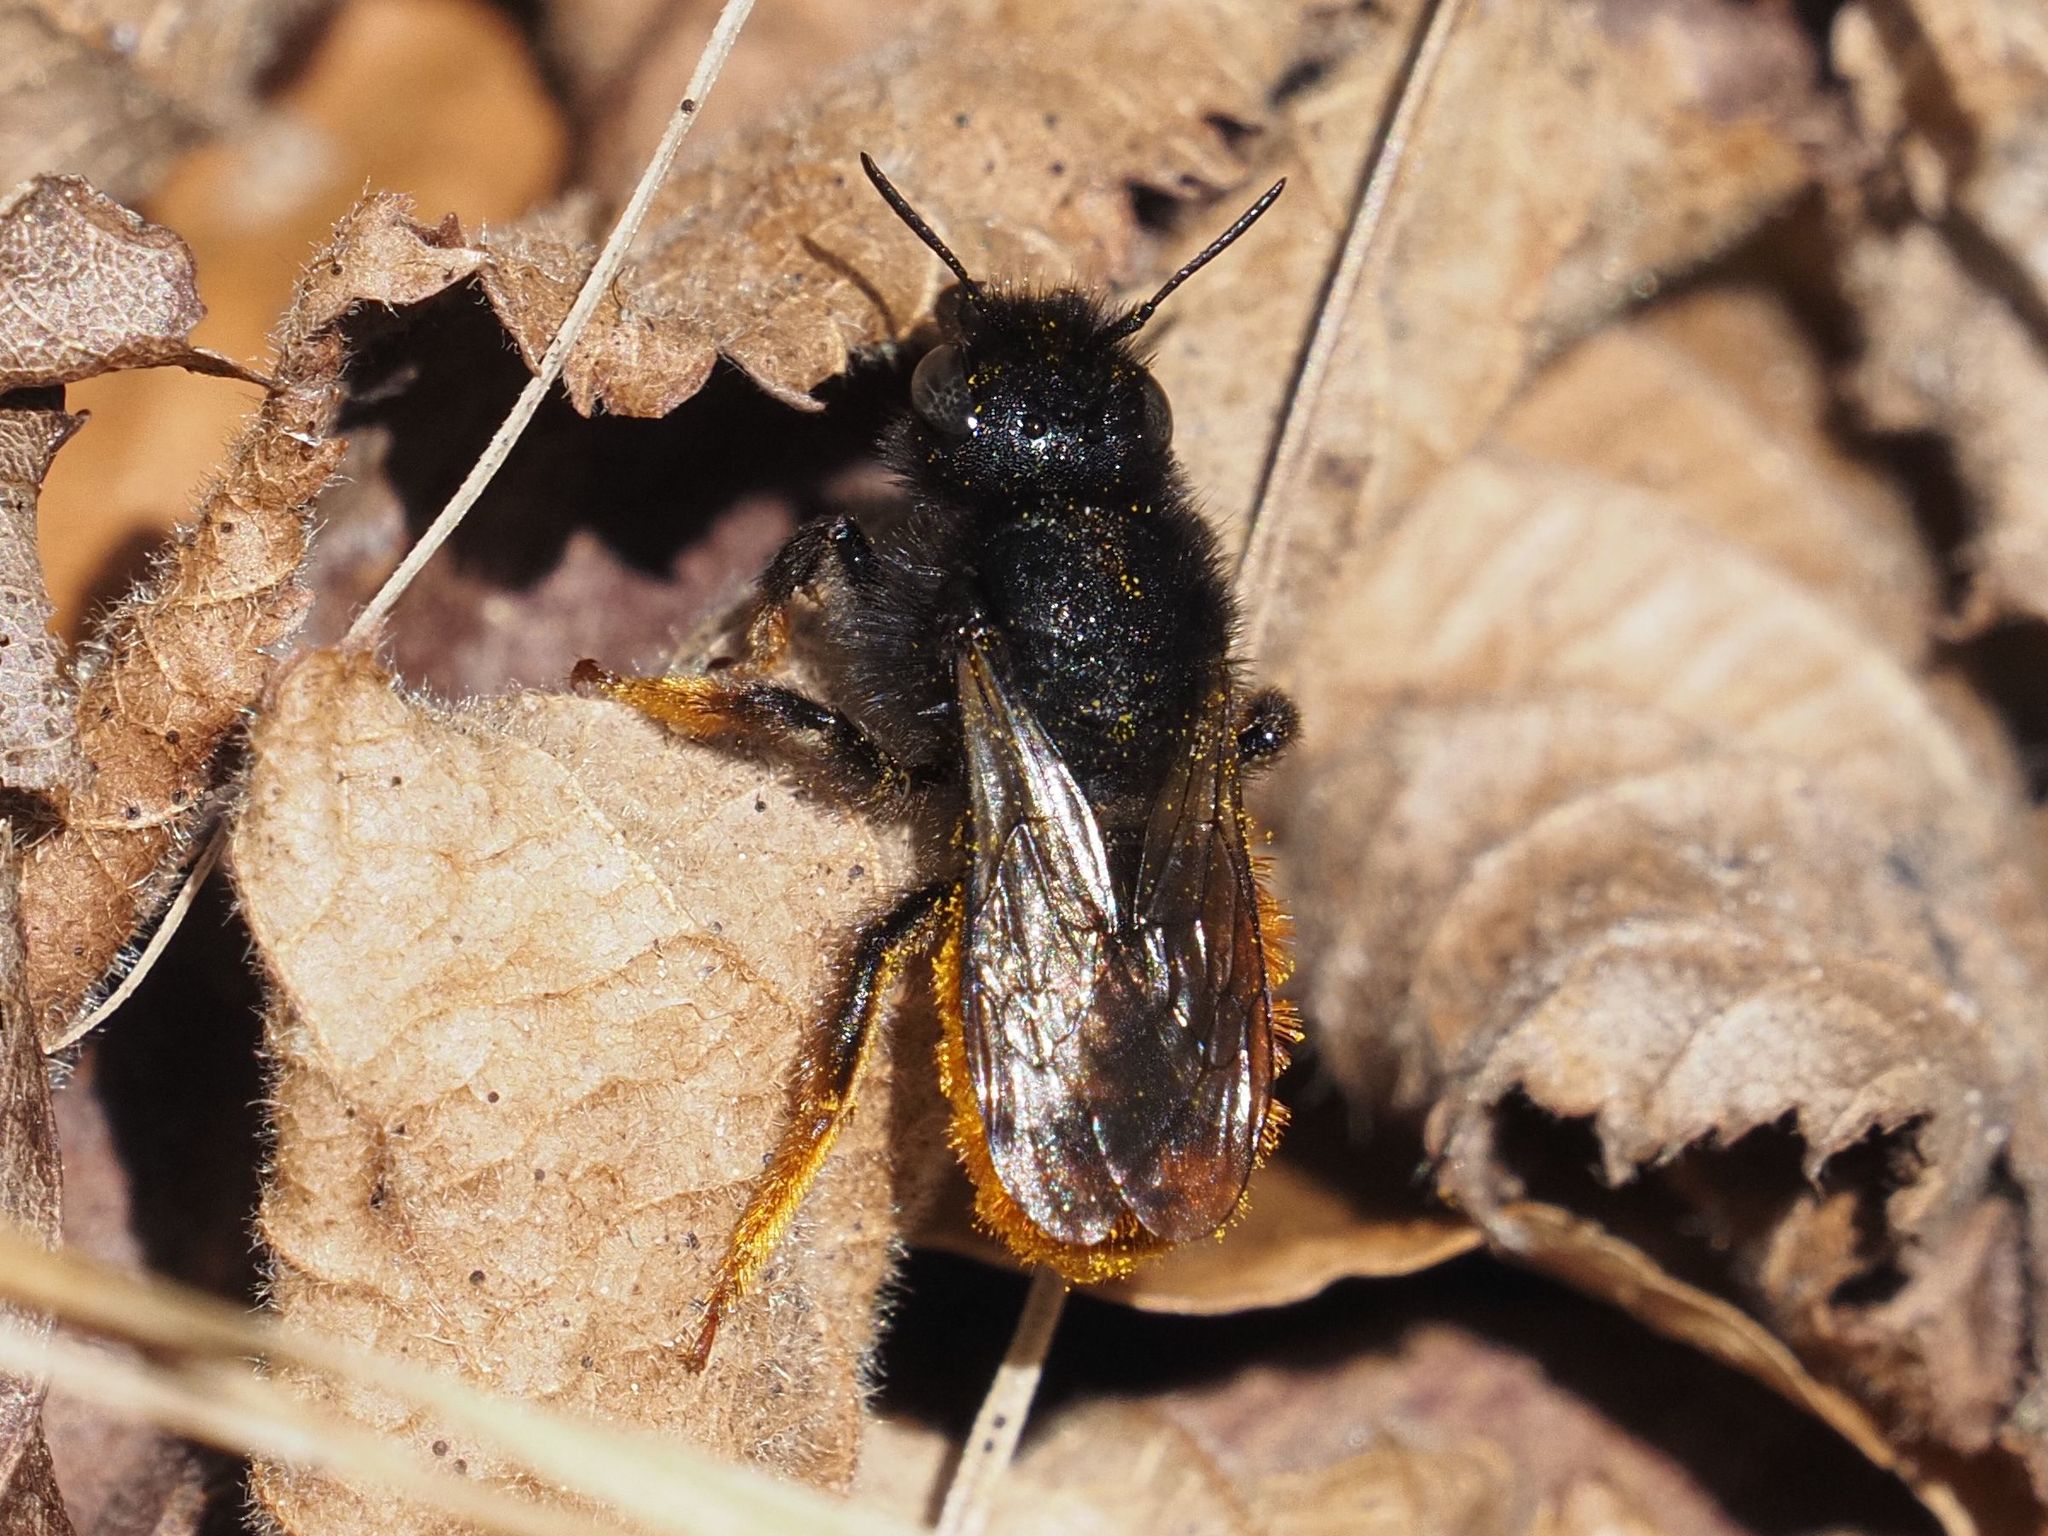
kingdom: Animalia
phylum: Arthropoda
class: Insecta
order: Hymenoptera
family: Megachilidae
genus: Osmia
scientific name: Osmia bicolor
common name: Red-tailed mason bee
